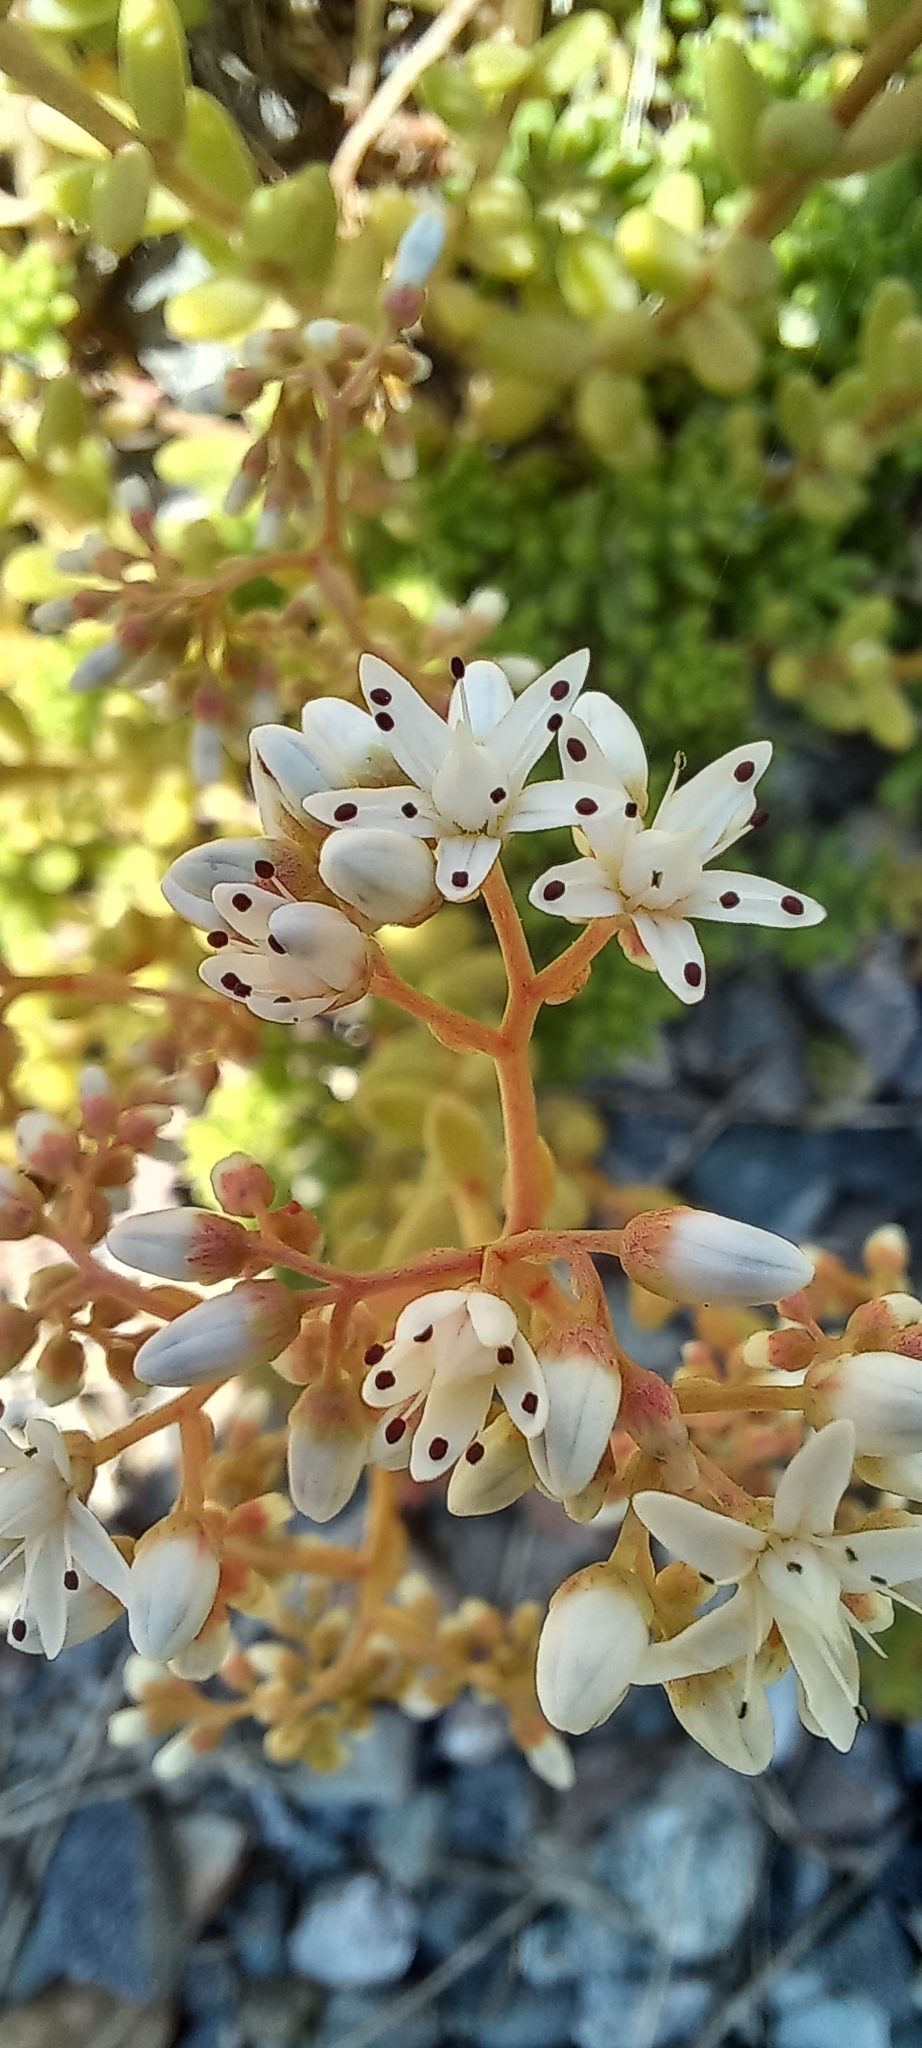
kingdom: Plantae
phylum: Tracheophyta
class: Magnoliopsida
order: Saxifragales
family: Crassulaceae
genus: Sedum
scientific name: Sedum album
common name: White stonecrop
